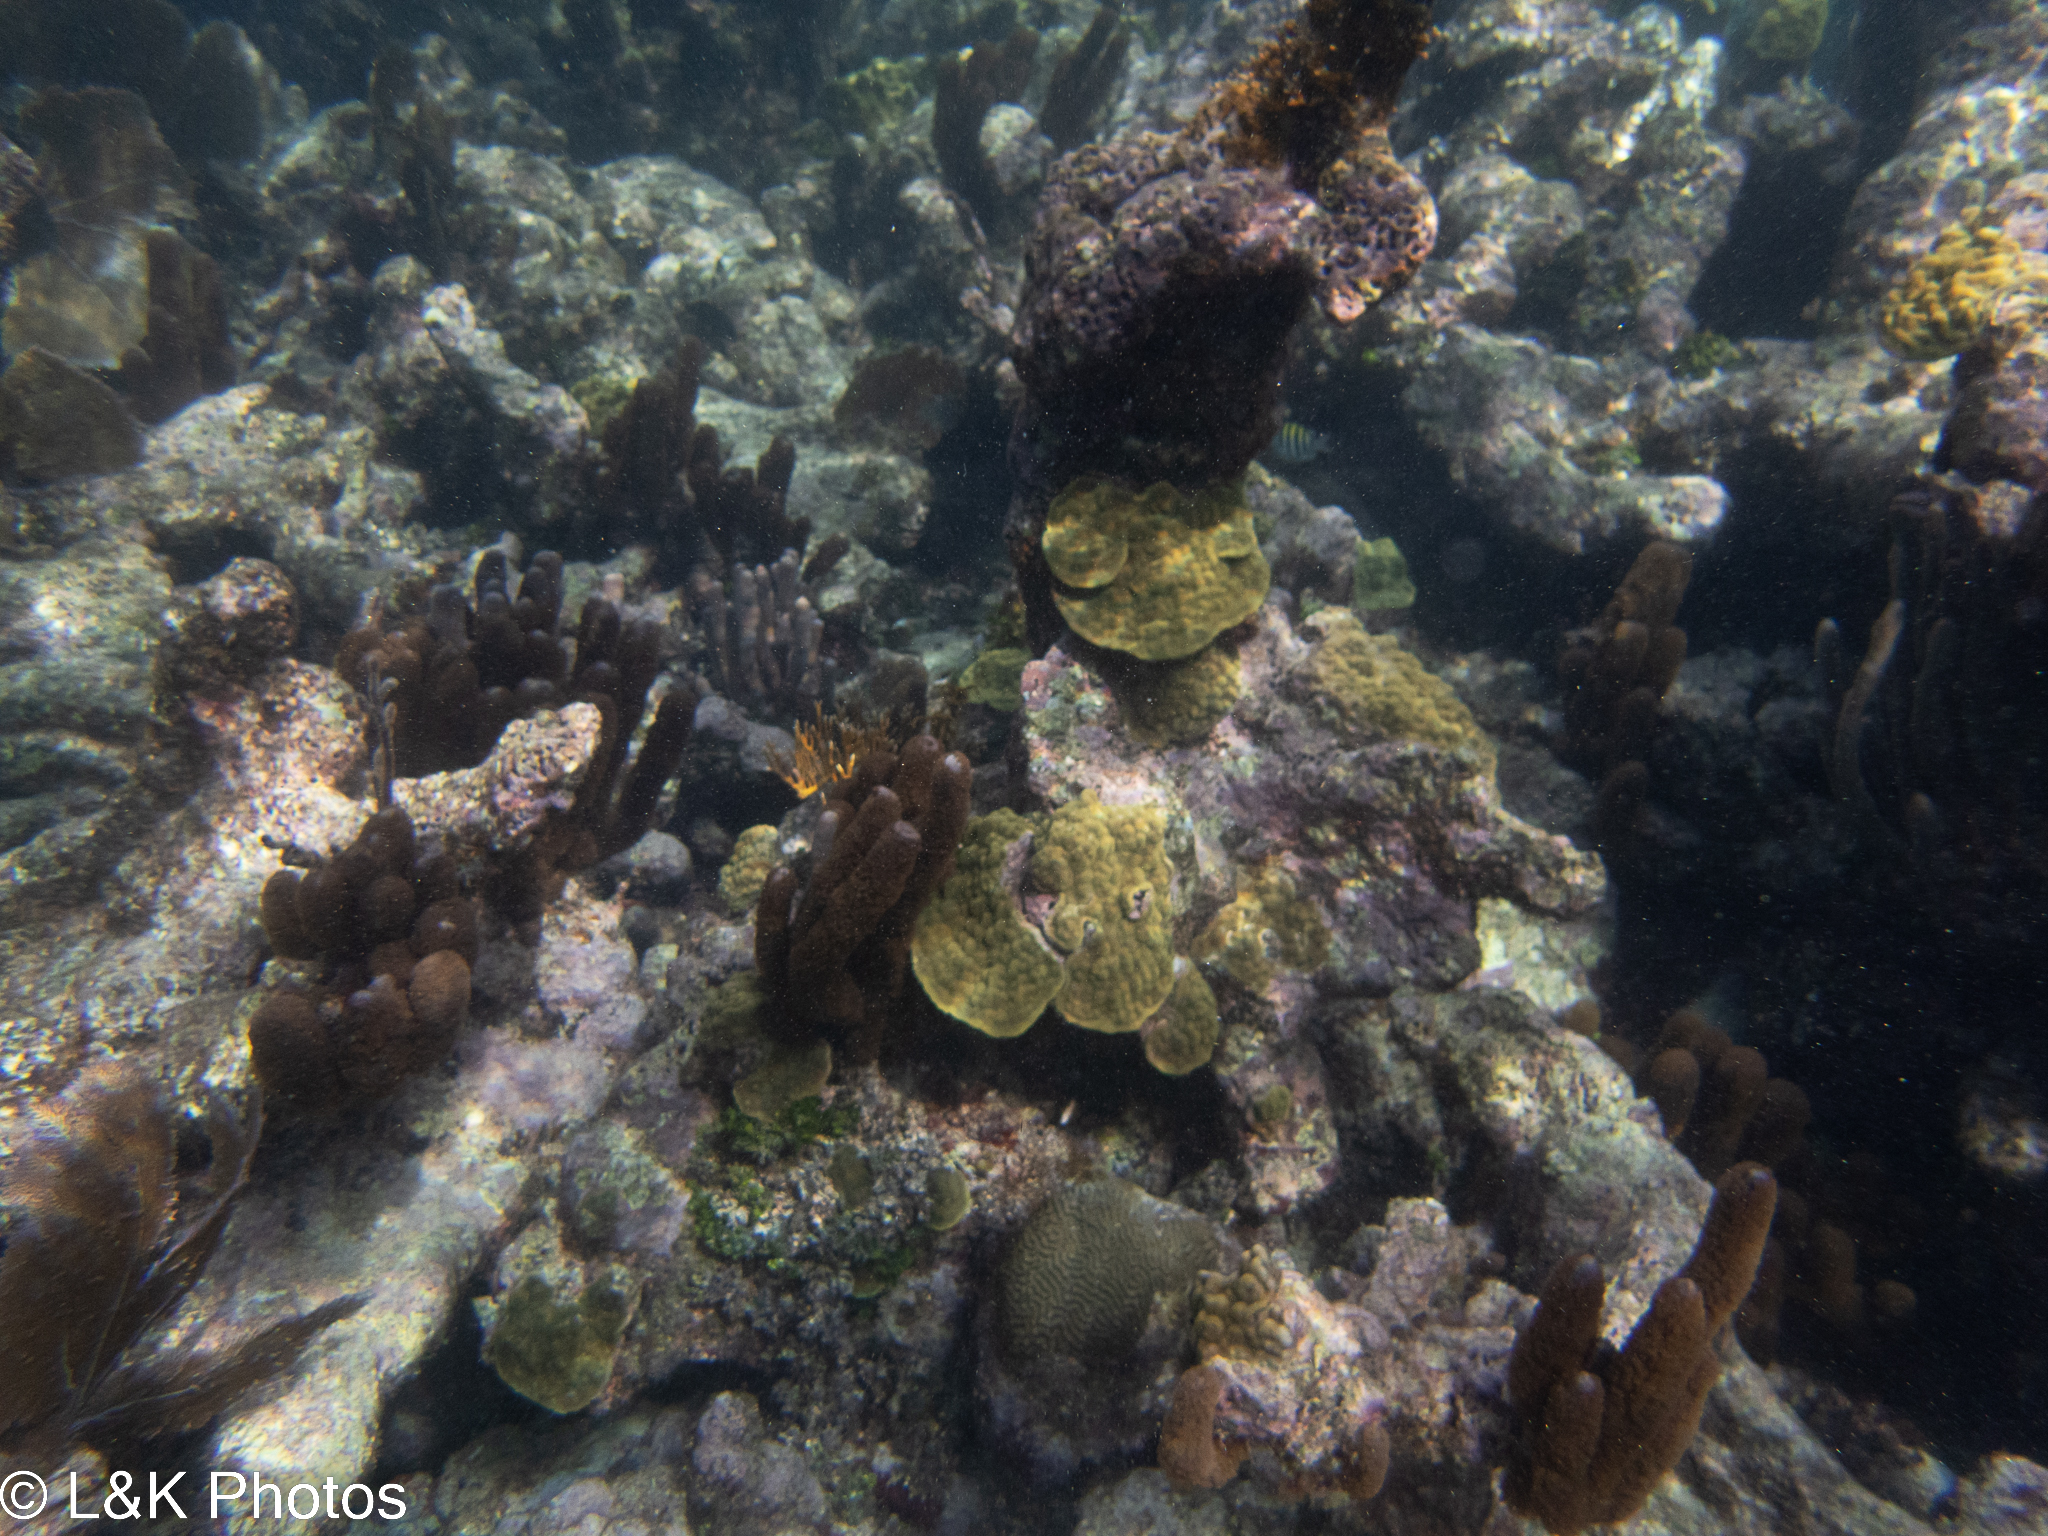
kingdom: Animalia
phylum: Cnidaria
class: Anthozoa
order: Scleractinia
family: Poritidae
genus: Porites
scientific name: Porites astreoides
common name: Mustard hill coral
